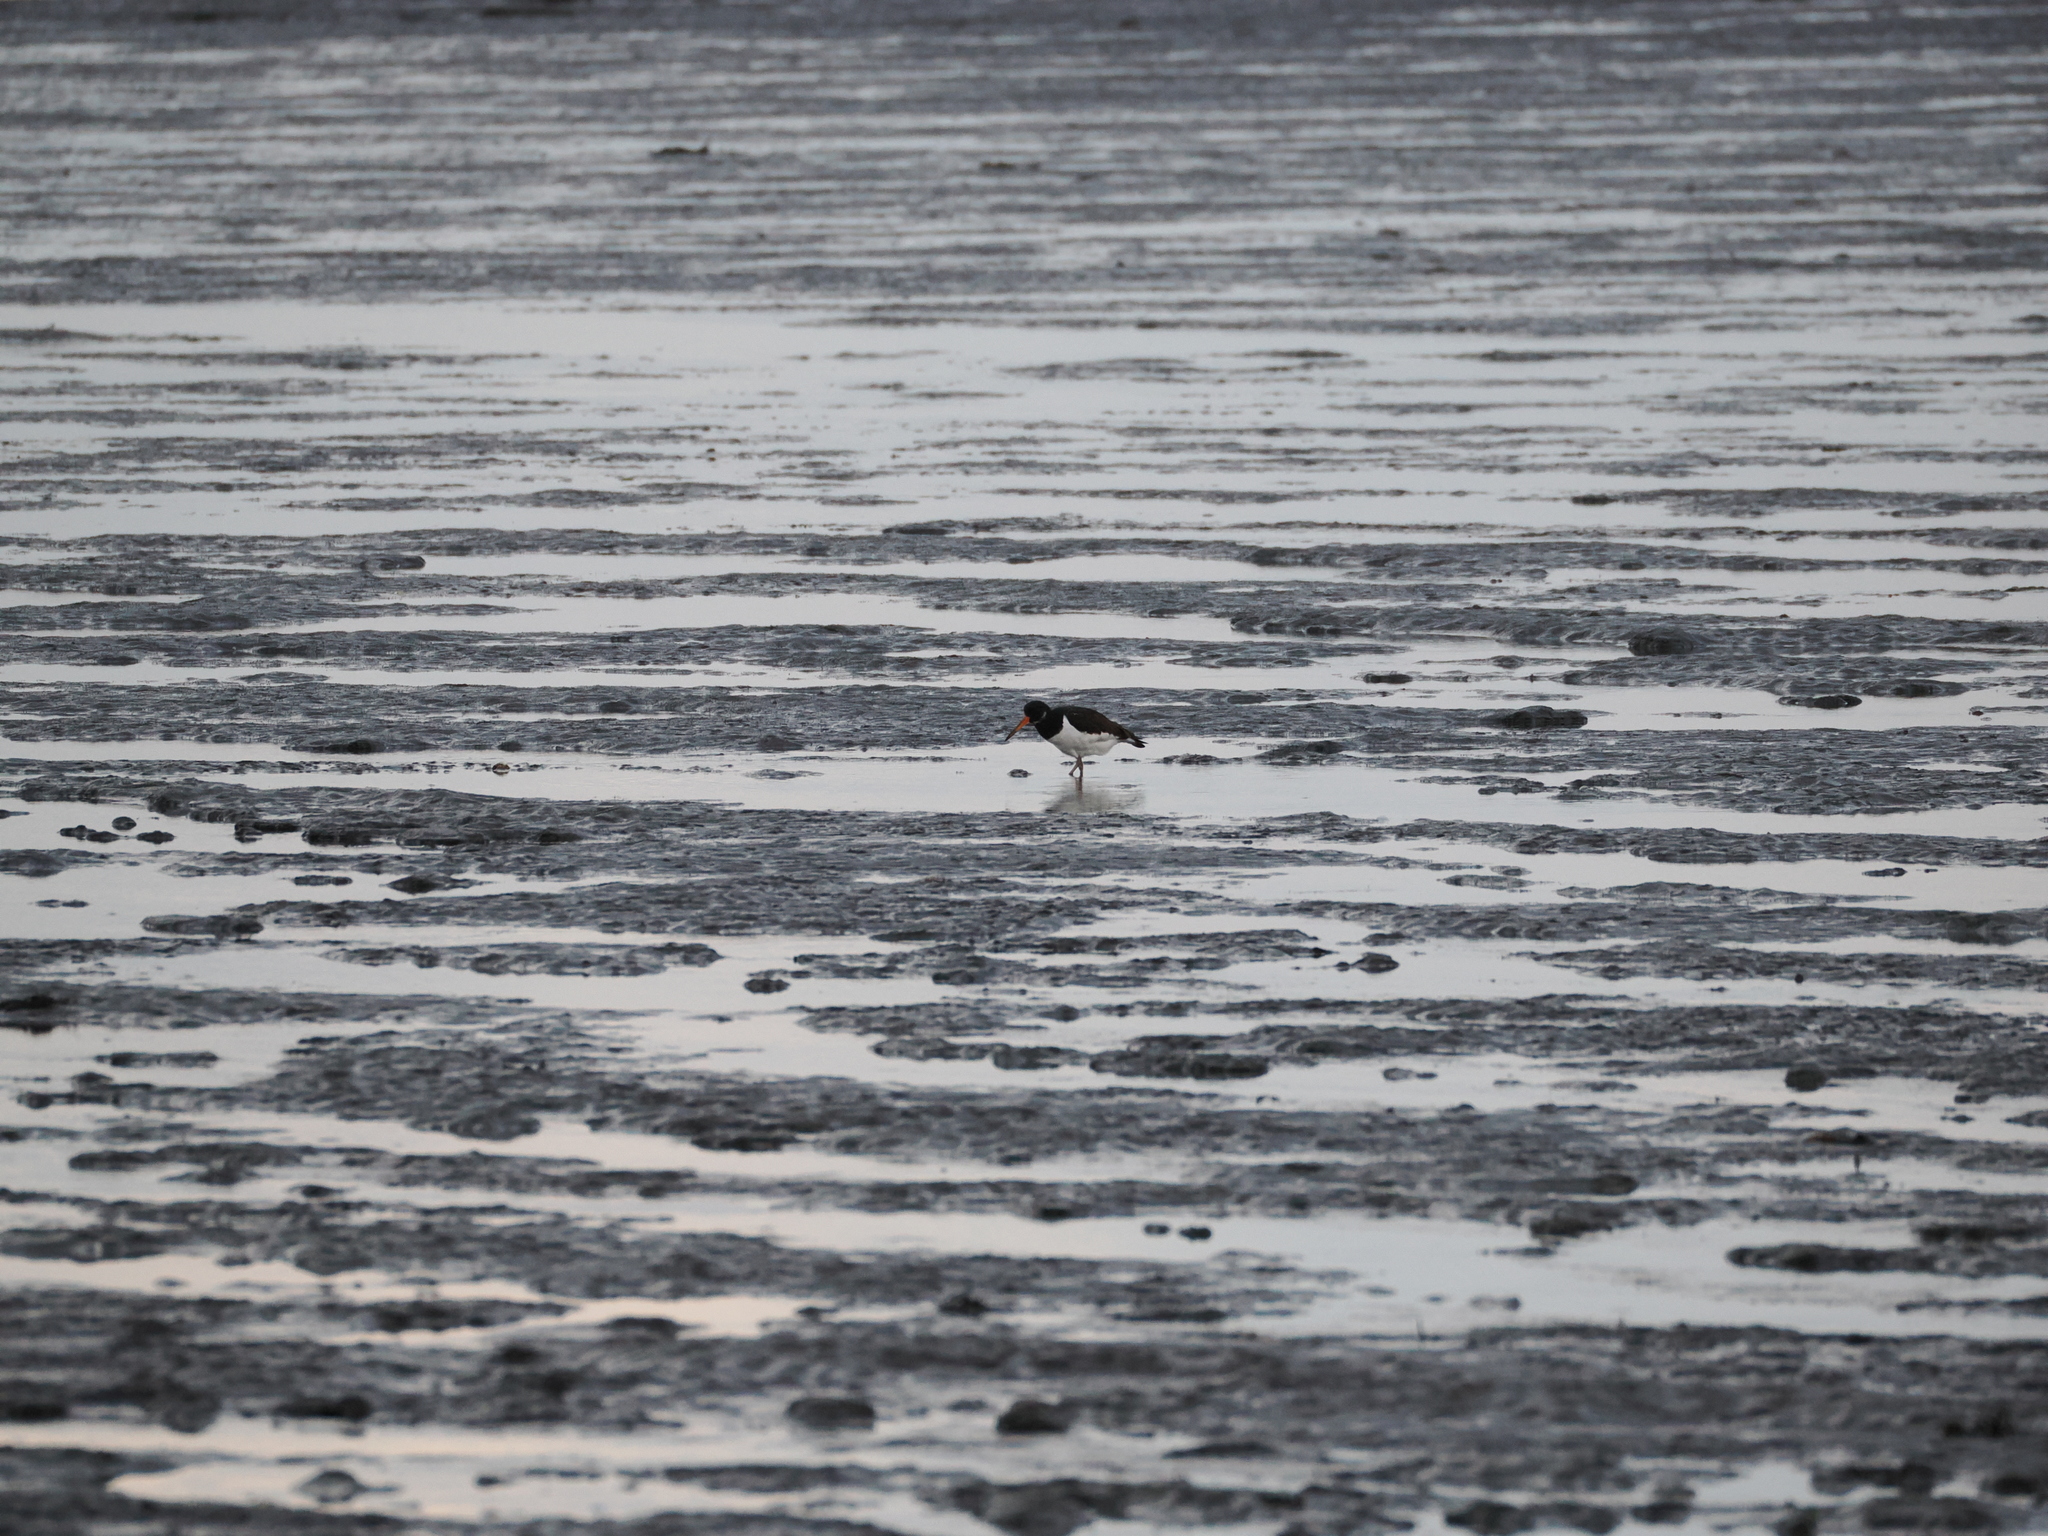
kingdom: Animalia
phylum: Chordata
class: Aves
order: Charadriiformes
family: Haematopodidae
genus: Haematopus
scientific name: Haematopus ostralegus
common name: Eurasian oystercatcher
